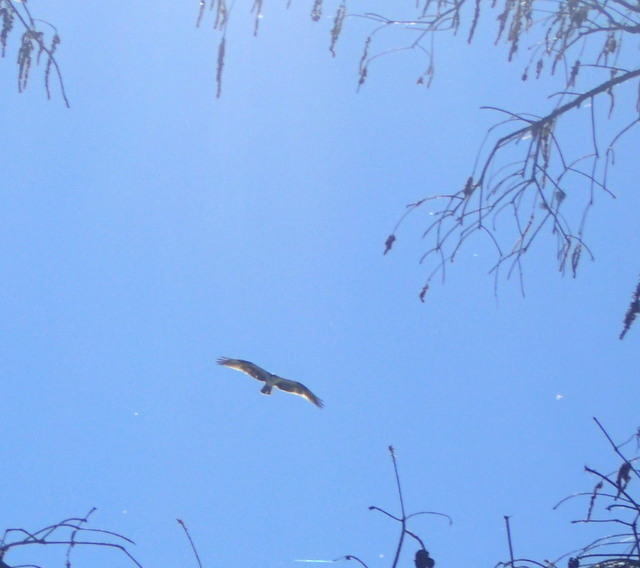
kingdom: Animalia
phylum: Chordata
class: Aves
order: Accipitriformes
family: Pandionidae
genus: Pandion
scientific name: Pandion haliaetus
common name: Osprey
